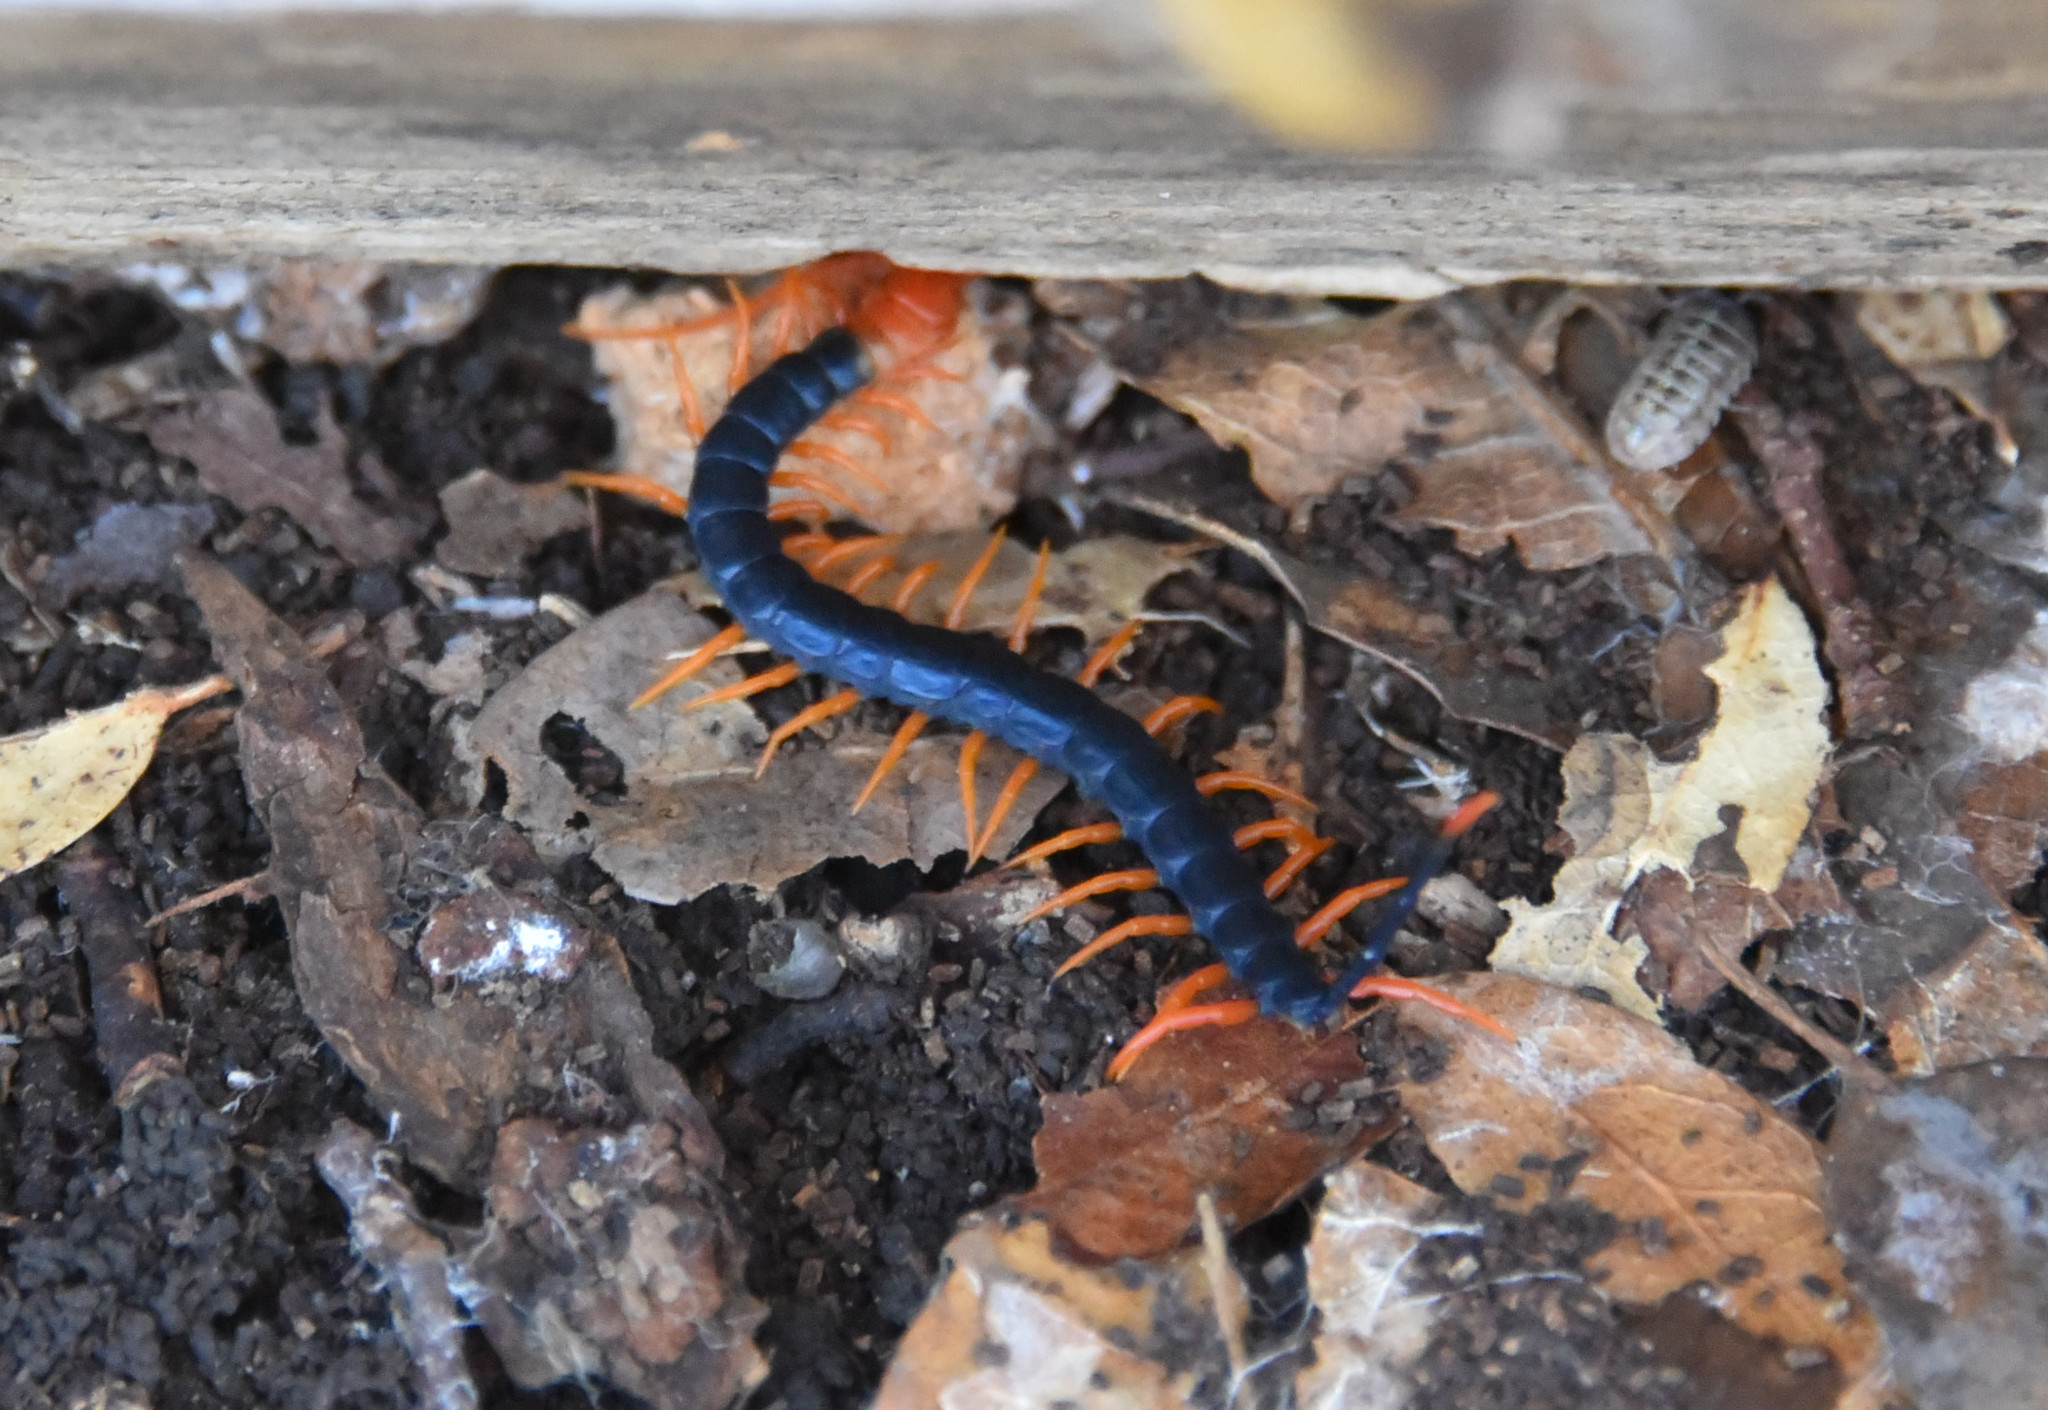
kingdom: Animalia
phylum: Arthropoda
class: Chilopoda
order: Scolopendromorpha
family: Scolopendridae
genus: Scolopendra
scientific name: Scolopendra heros
